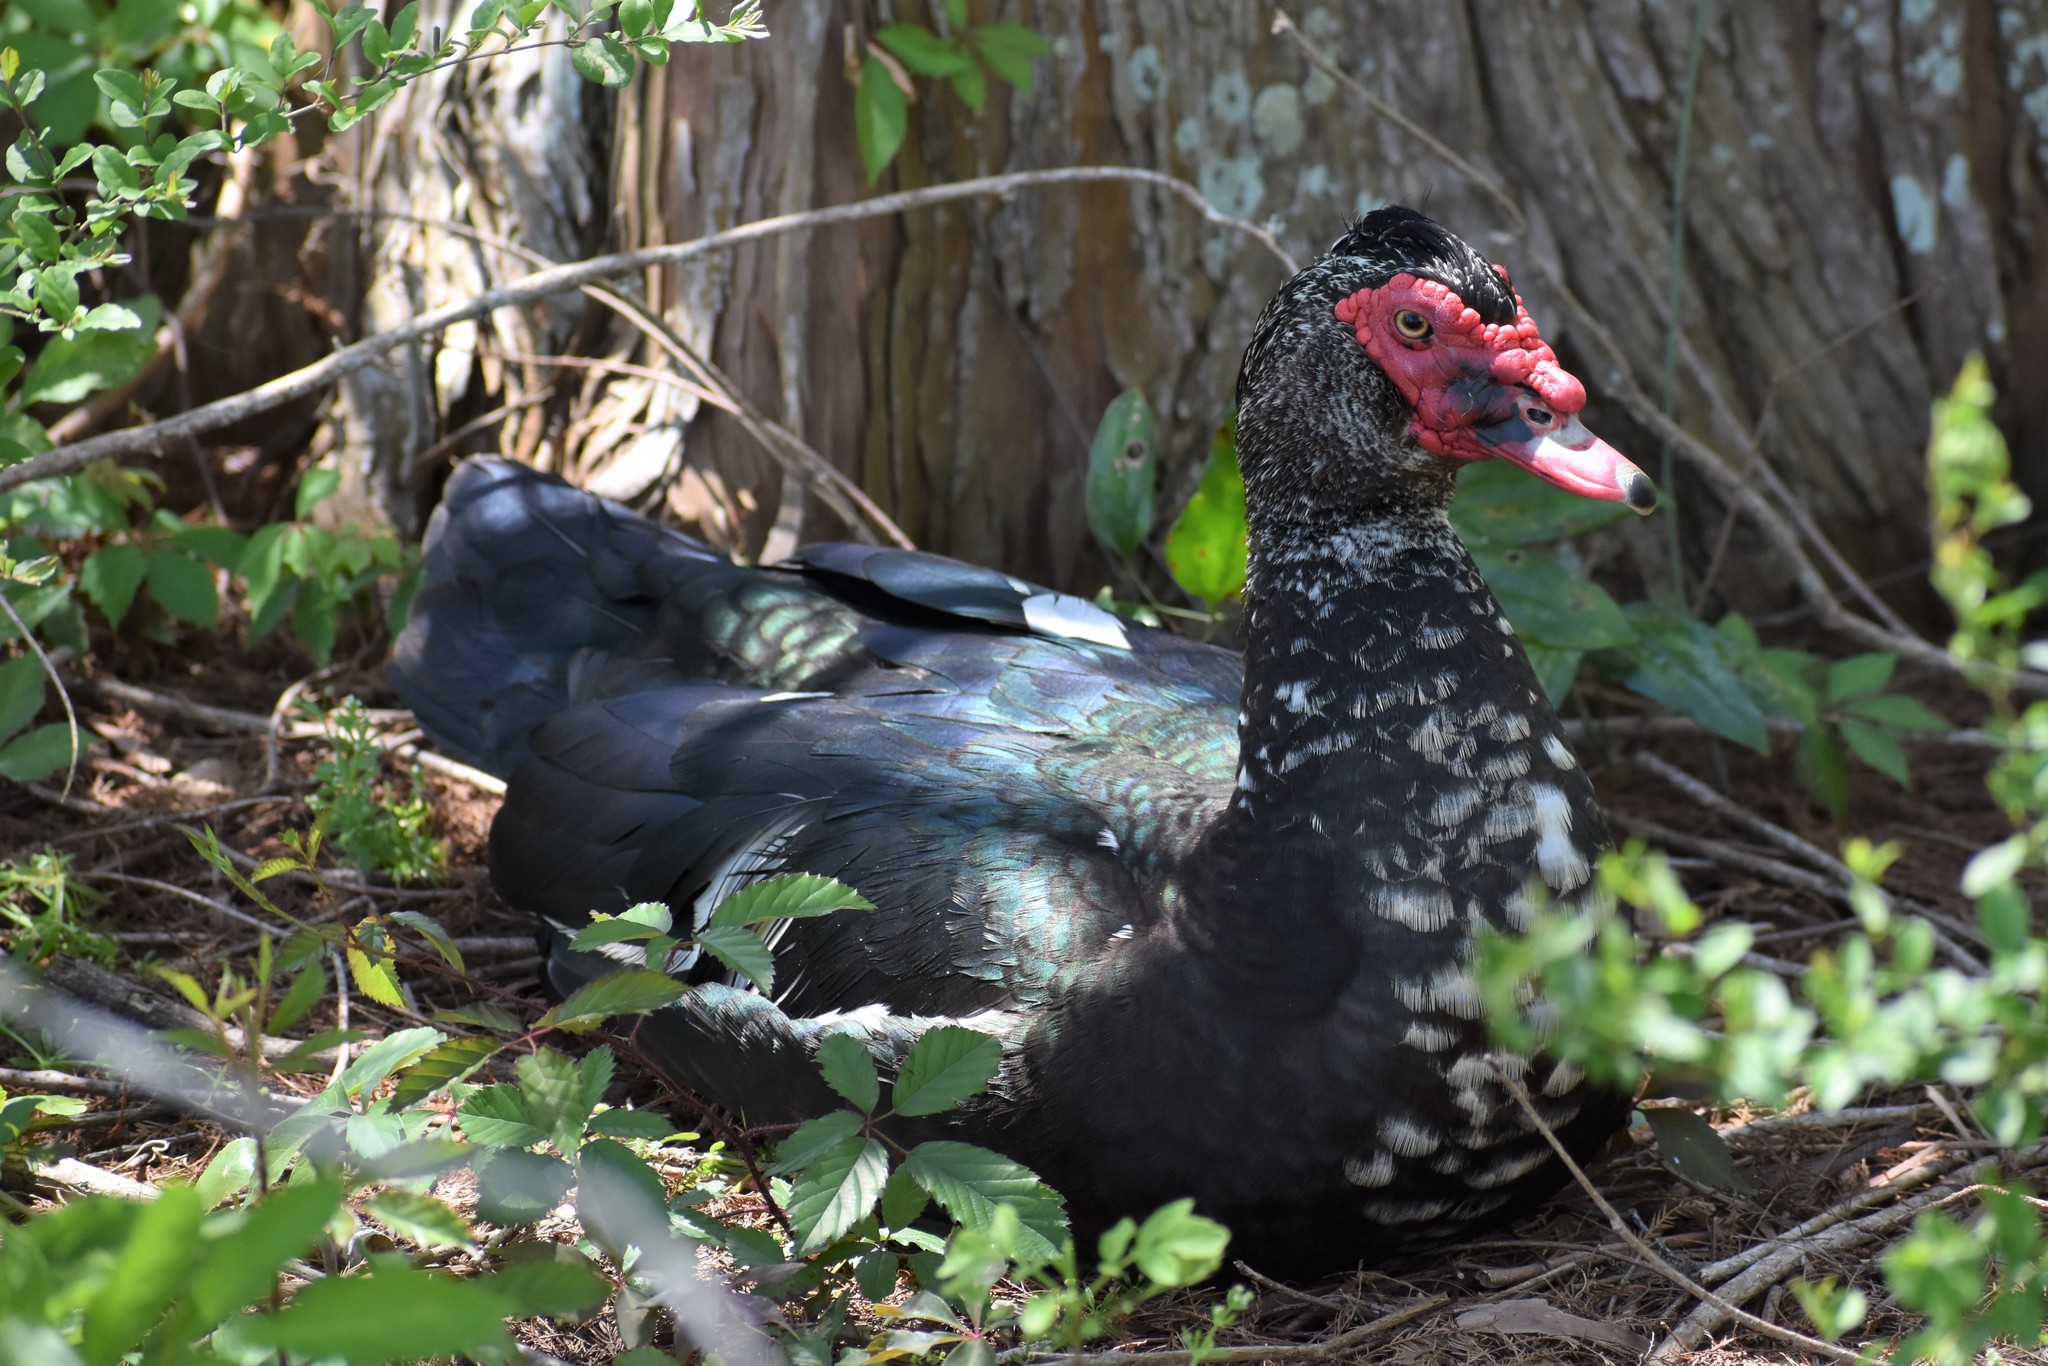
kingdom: Animalia
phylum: Chordata
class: Aves
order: Anseriformes
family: Anatidae
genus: Cairina
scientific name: Cairina moschata
